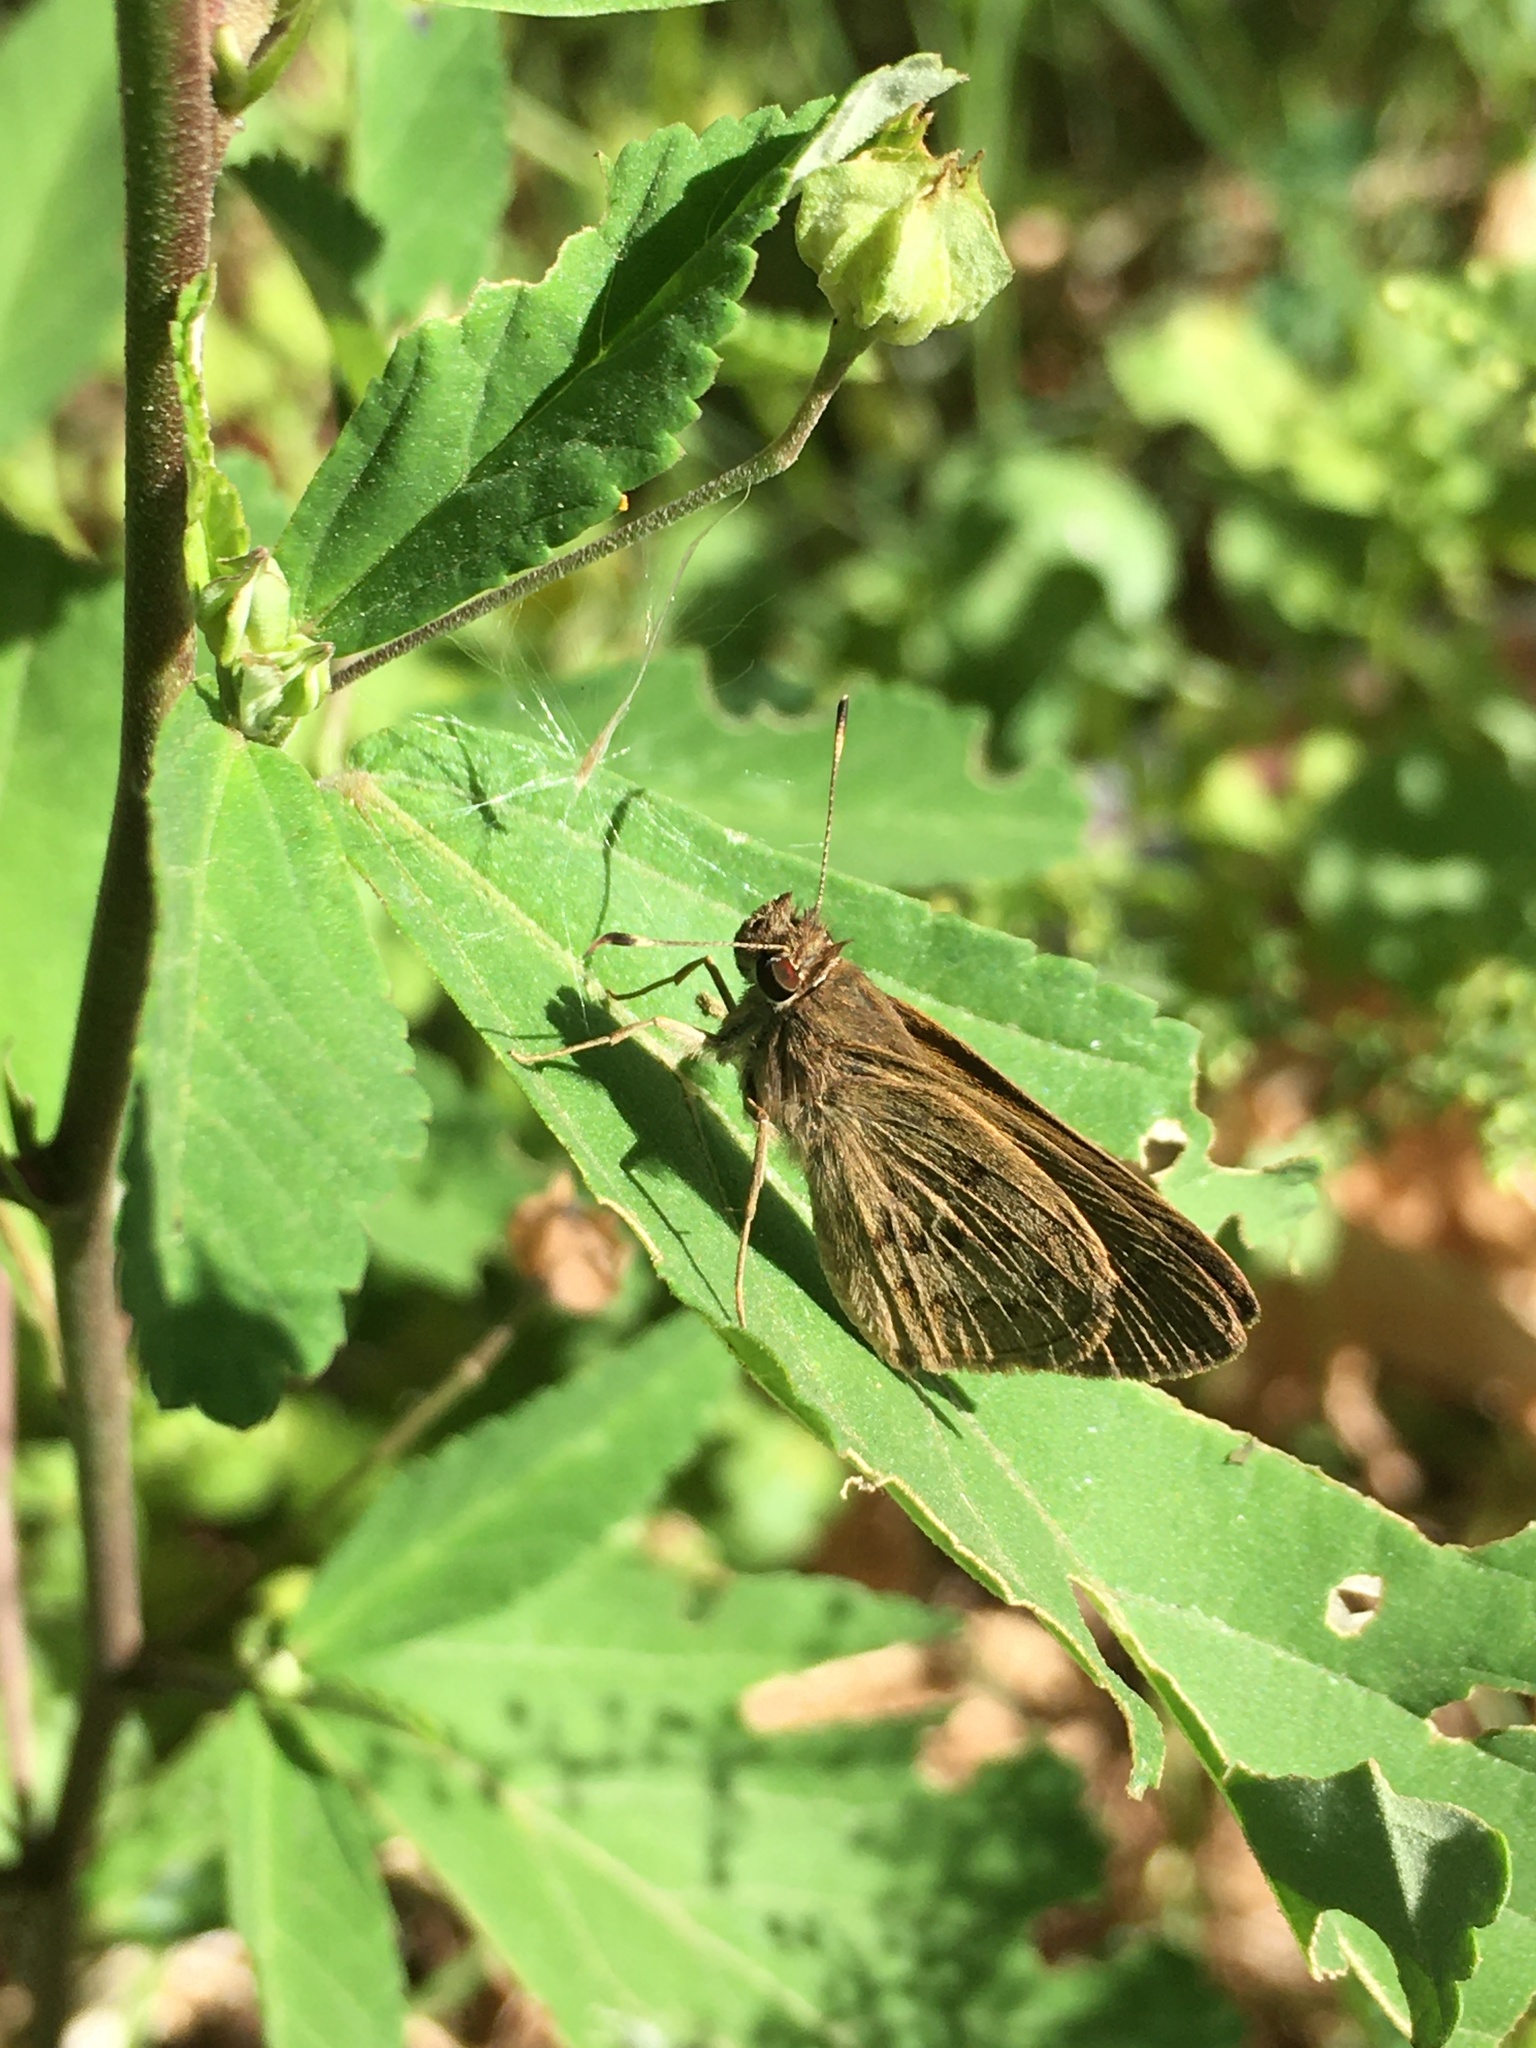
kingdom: Animalia
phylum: Arthropoda
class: Insecta
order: Lepidoptera
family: Hesperiidae
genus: Cymaenes
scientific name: Cymaenes gisca
